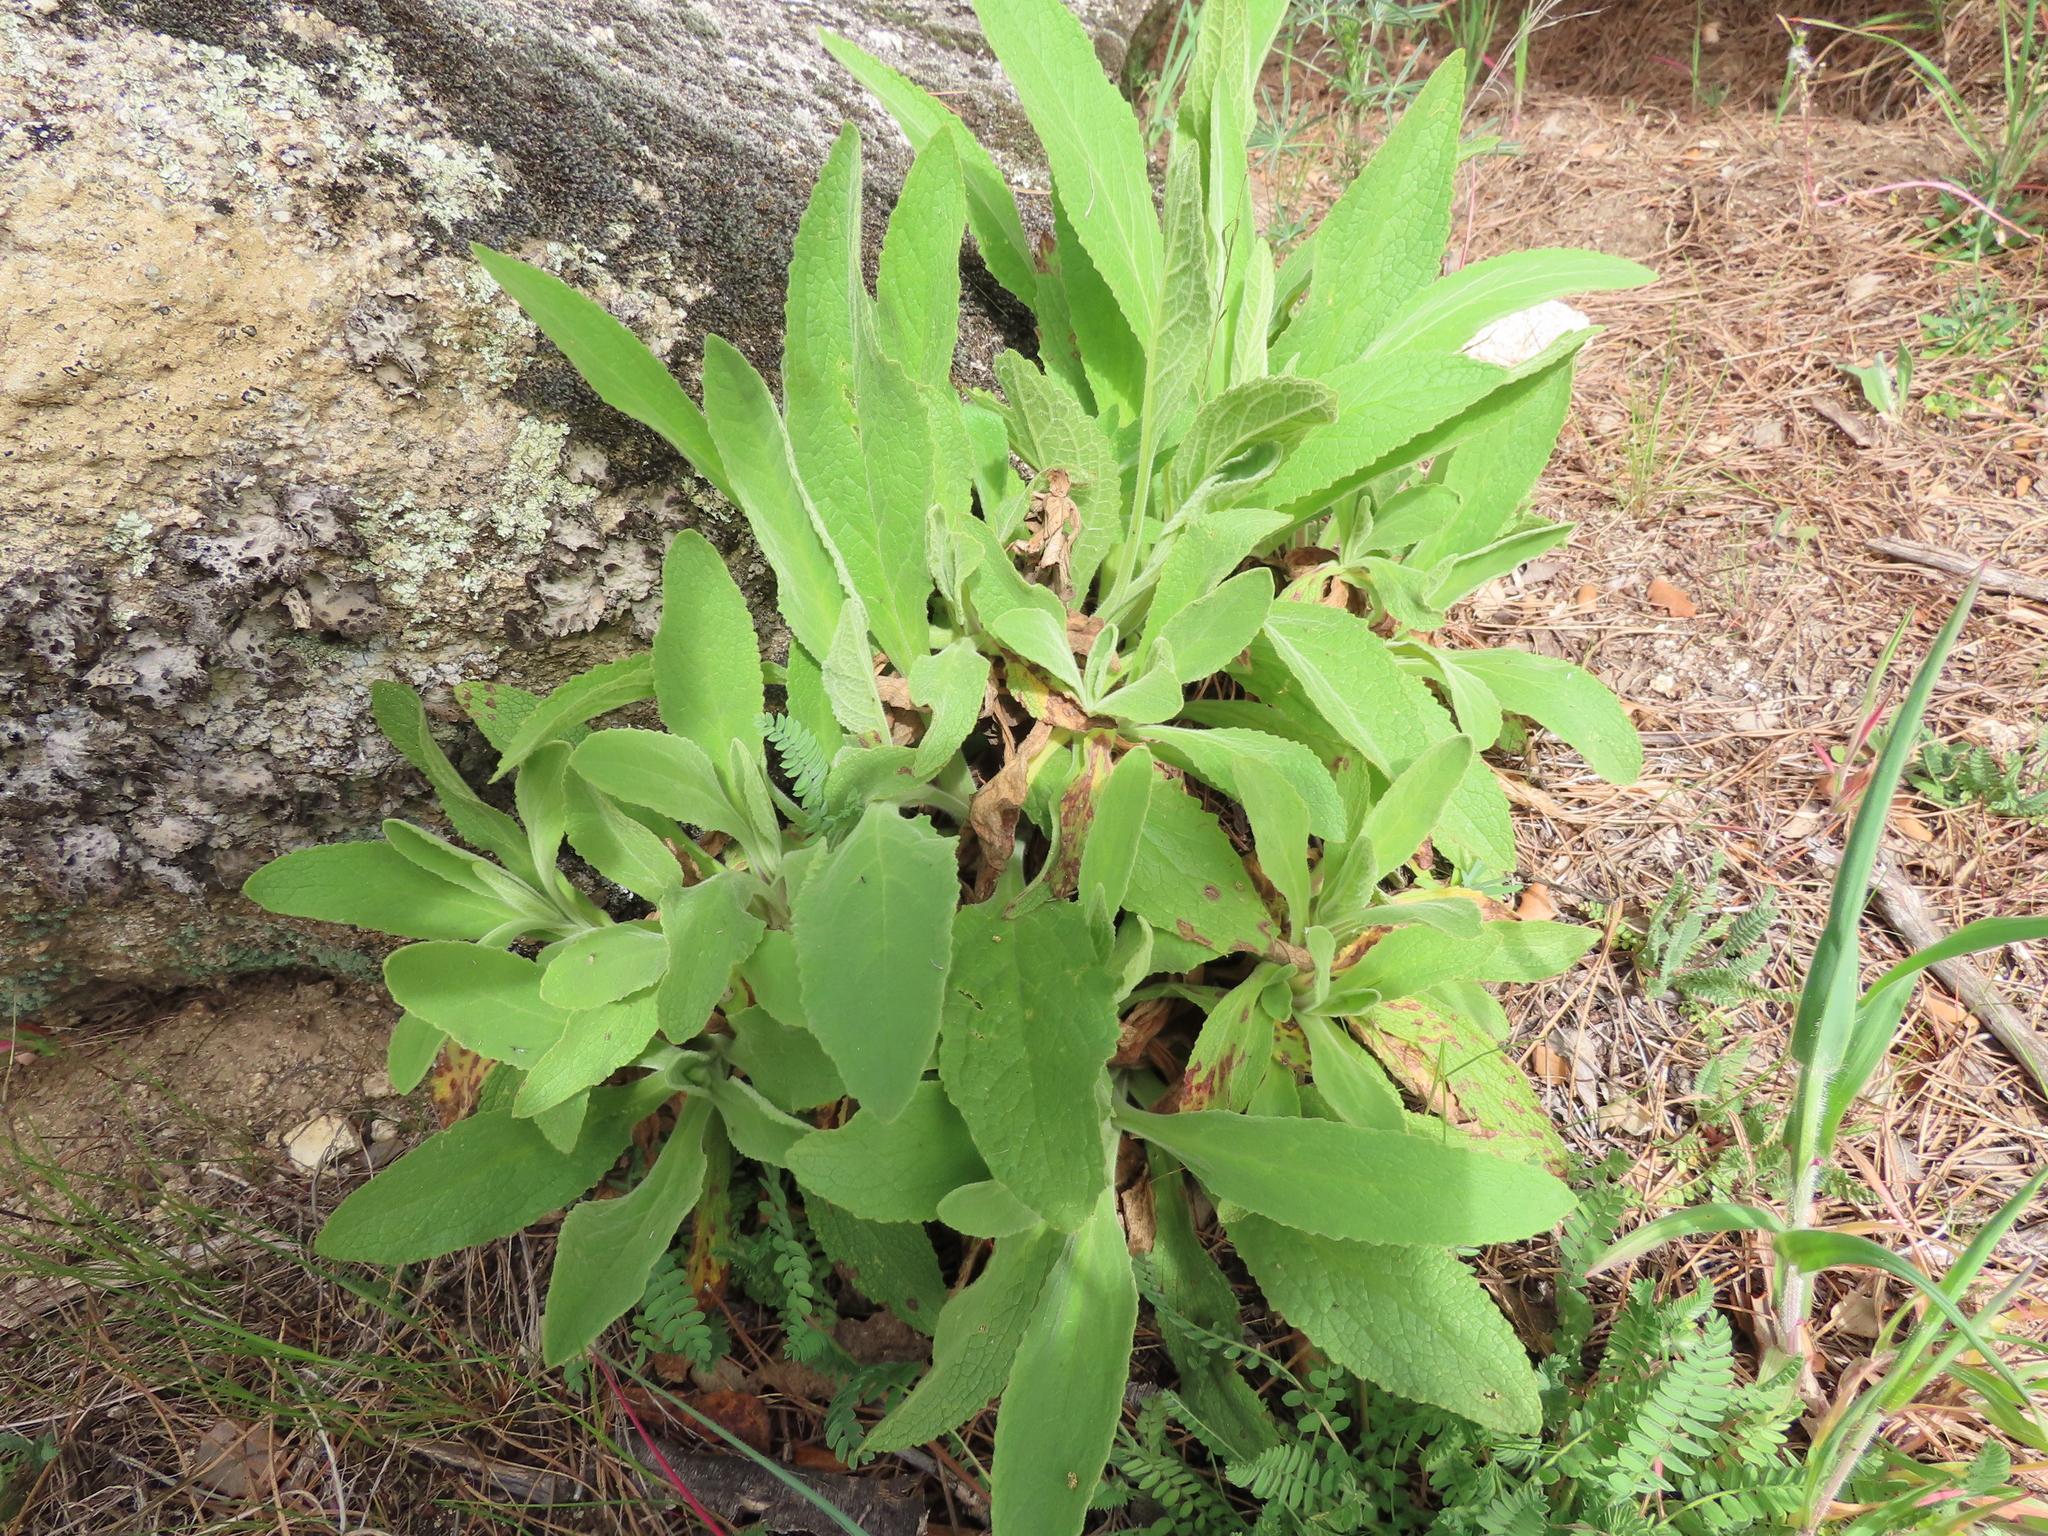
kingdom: Plantae
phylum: Tracheophyta
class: Magnoliopsida
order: Lamiales
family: Plantaginaceae
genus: Digitalis
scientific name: Digitalis thapsi
